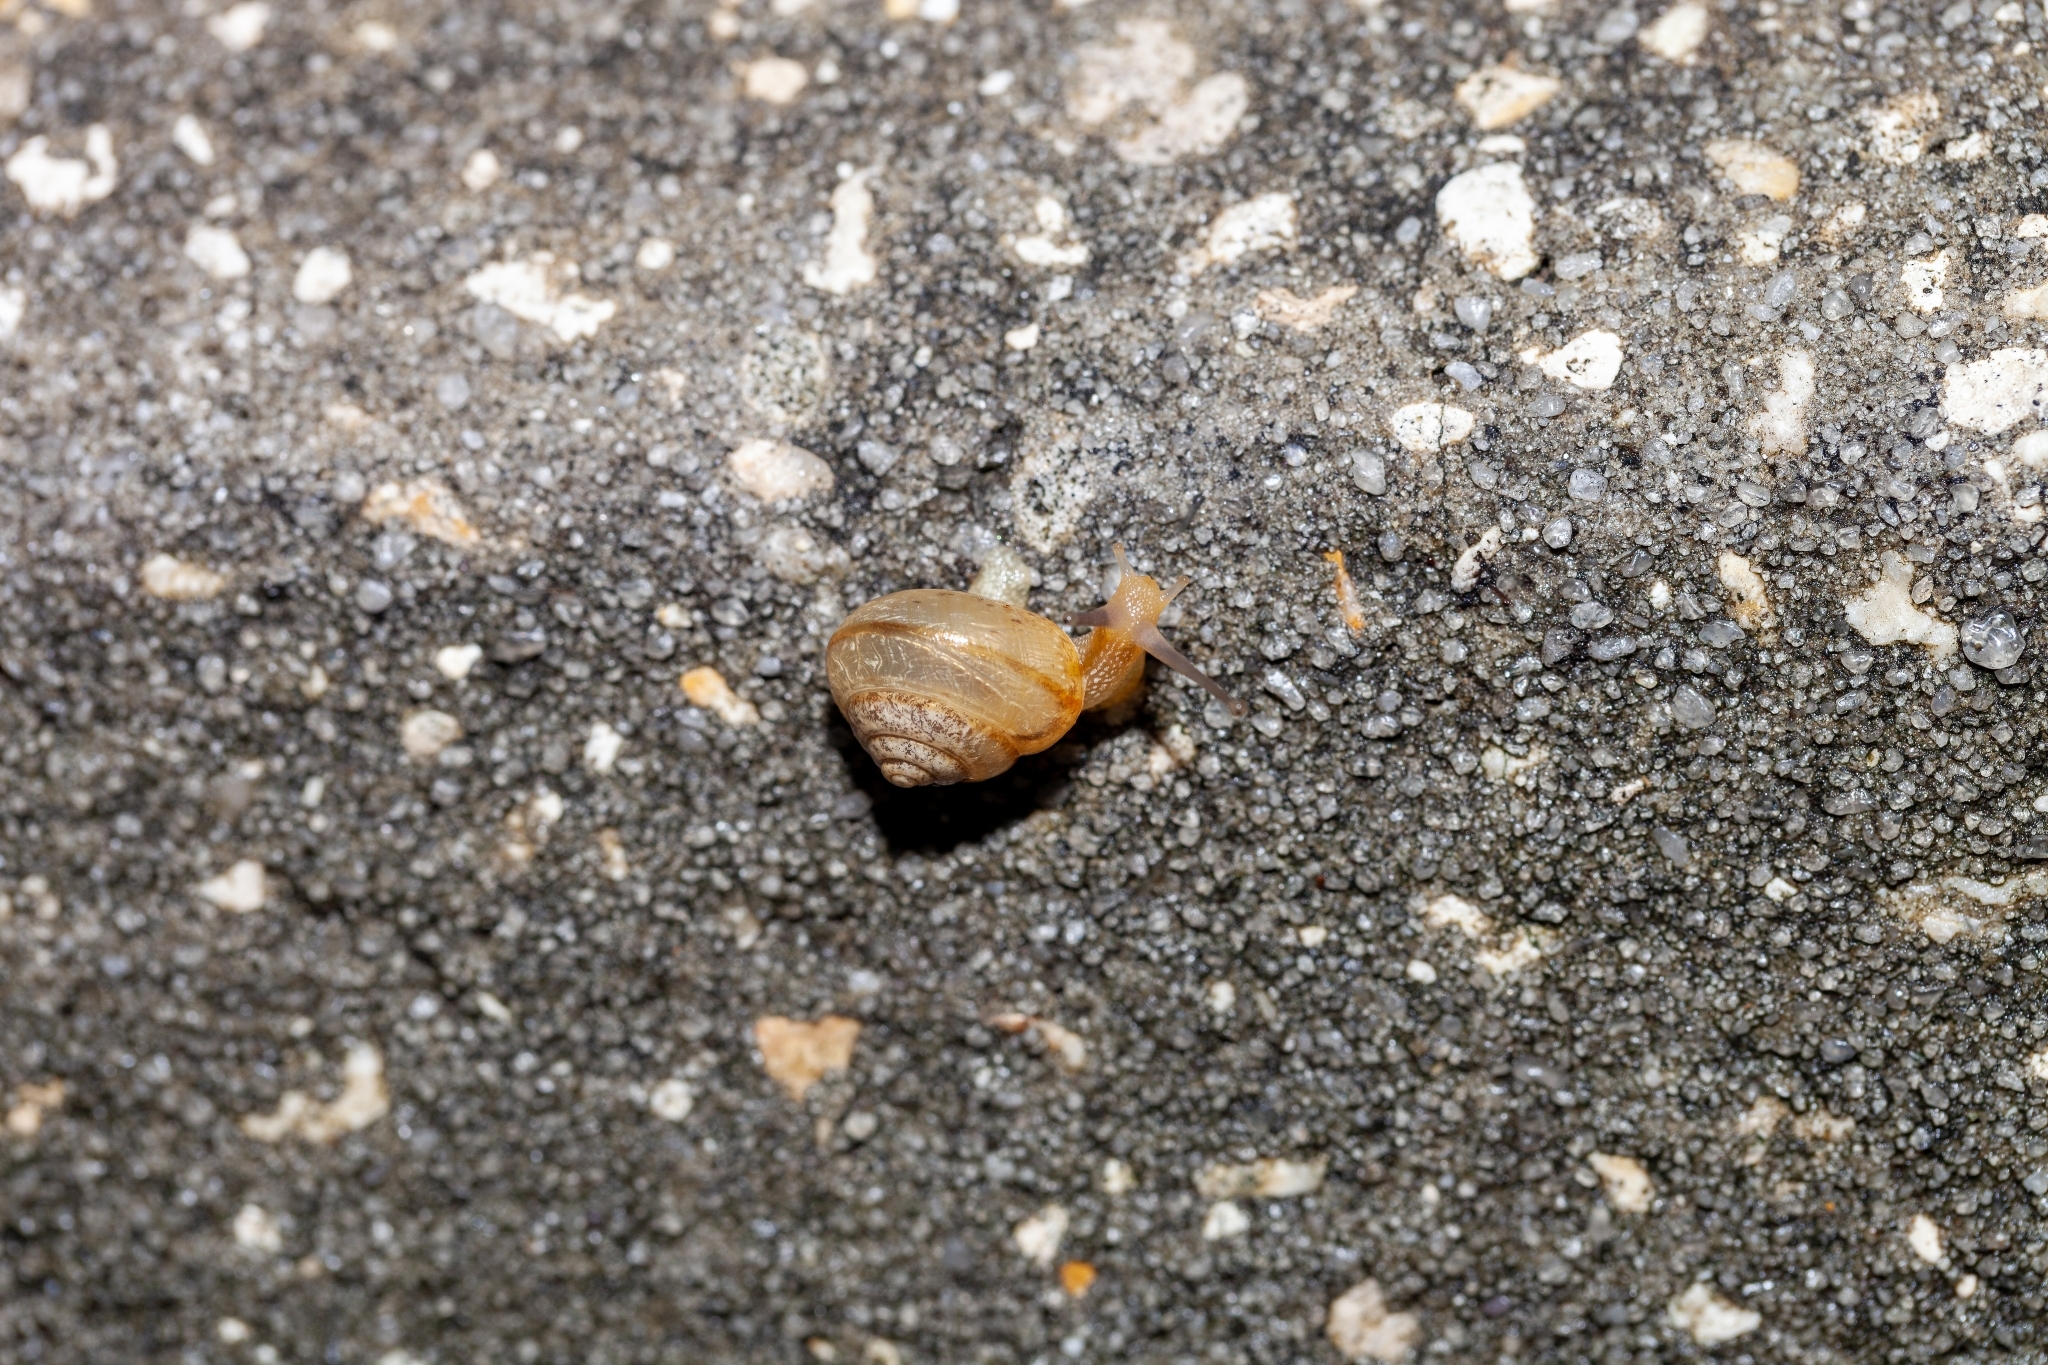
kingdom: Animalia
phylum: Mollusca
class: Gastropoda
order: Stylommatophora
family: Camaenidae
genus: Bradybaena
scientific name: Bradybaena similaris
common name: Asian trampsnail
